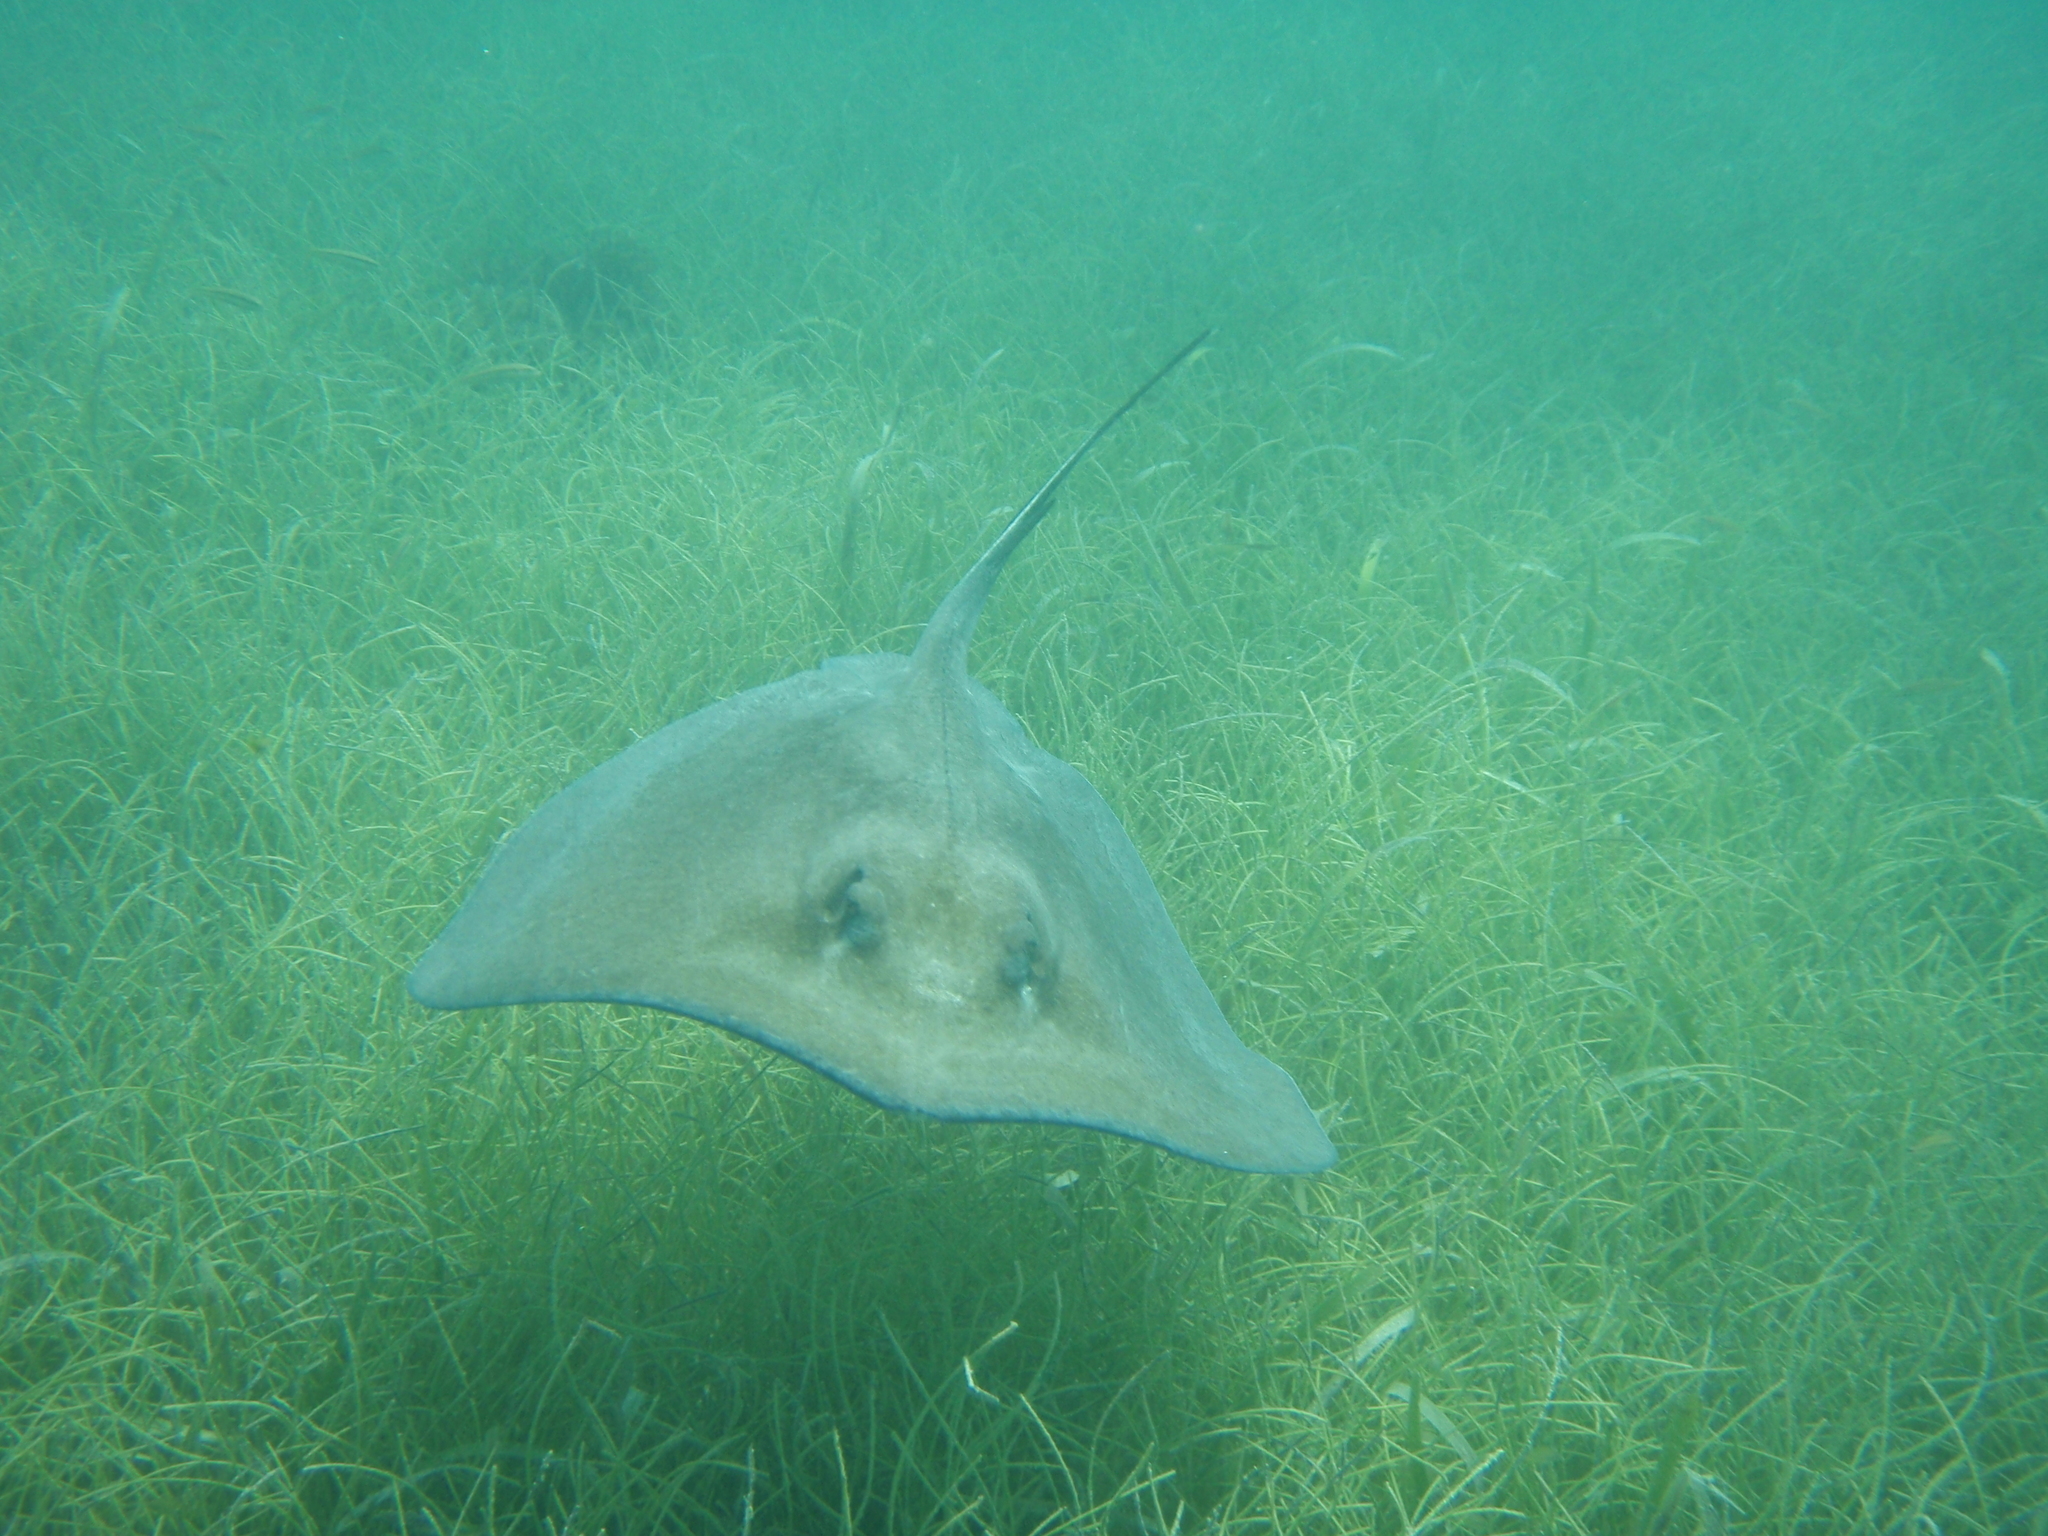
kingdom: Animalia
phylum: Chordata
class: Elasmobranchii
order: Myliobatiformes
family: Dasyatidae
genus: Hypanus
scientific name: Hypanus americanus
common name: Southern stingray
